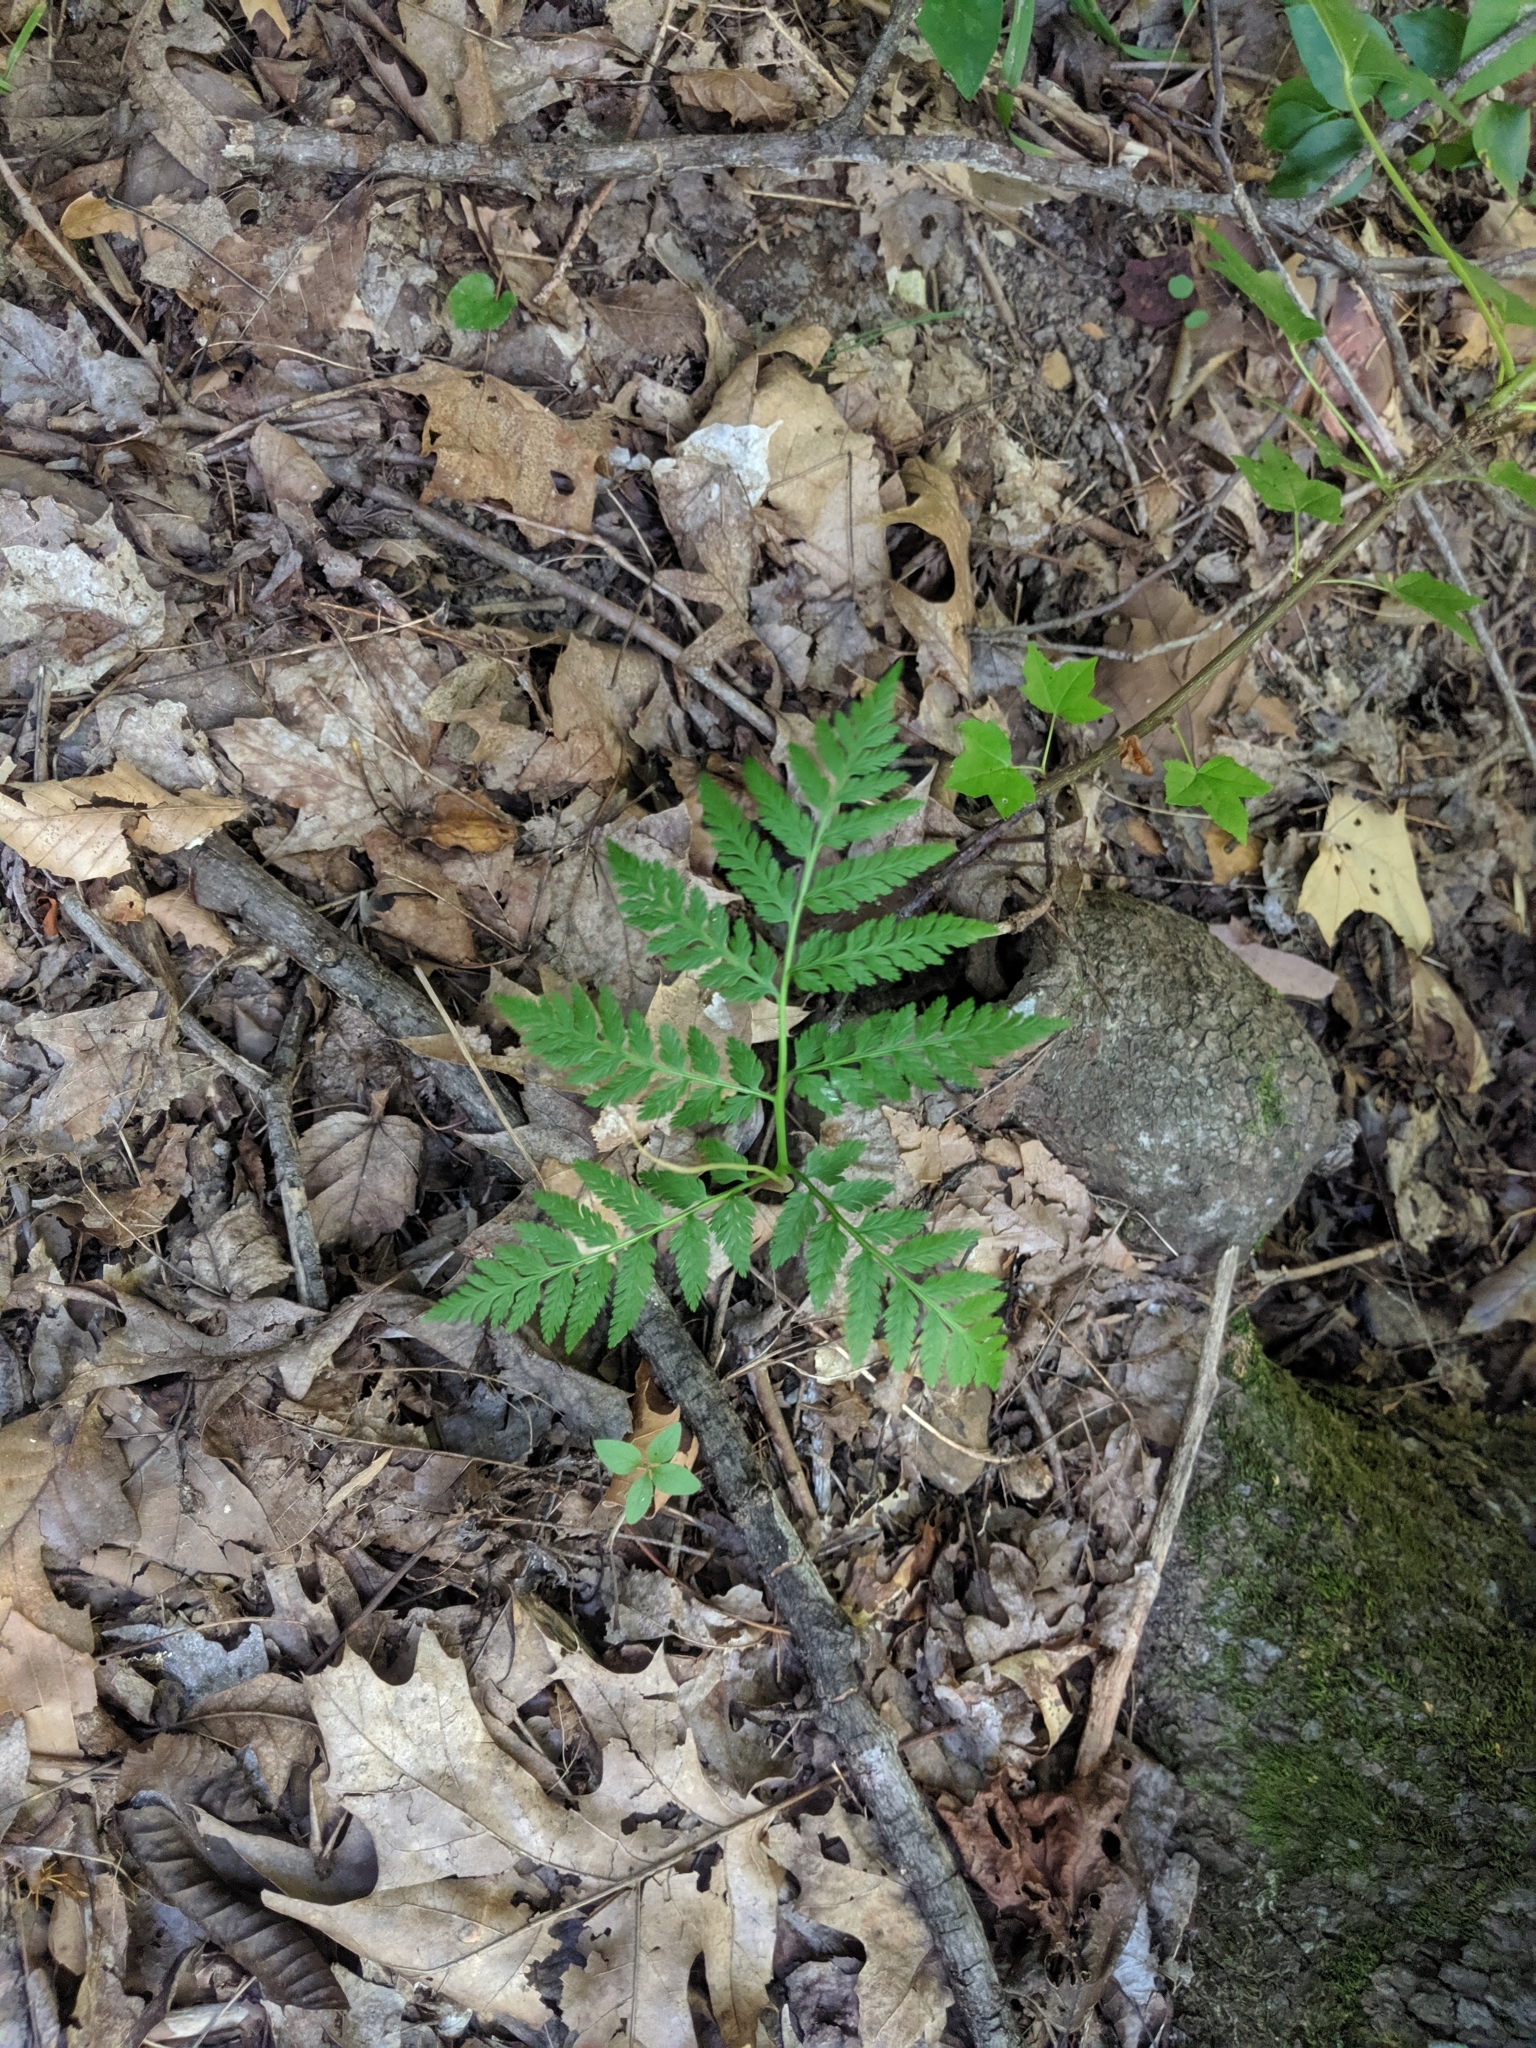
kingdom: Plantae
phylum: Tracheophyta
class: Polypodiopsida
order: Ophioglossales
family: Ophioglossaceae
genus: Botrypus
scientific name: Botrypus virginianus
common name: Common grapefern
